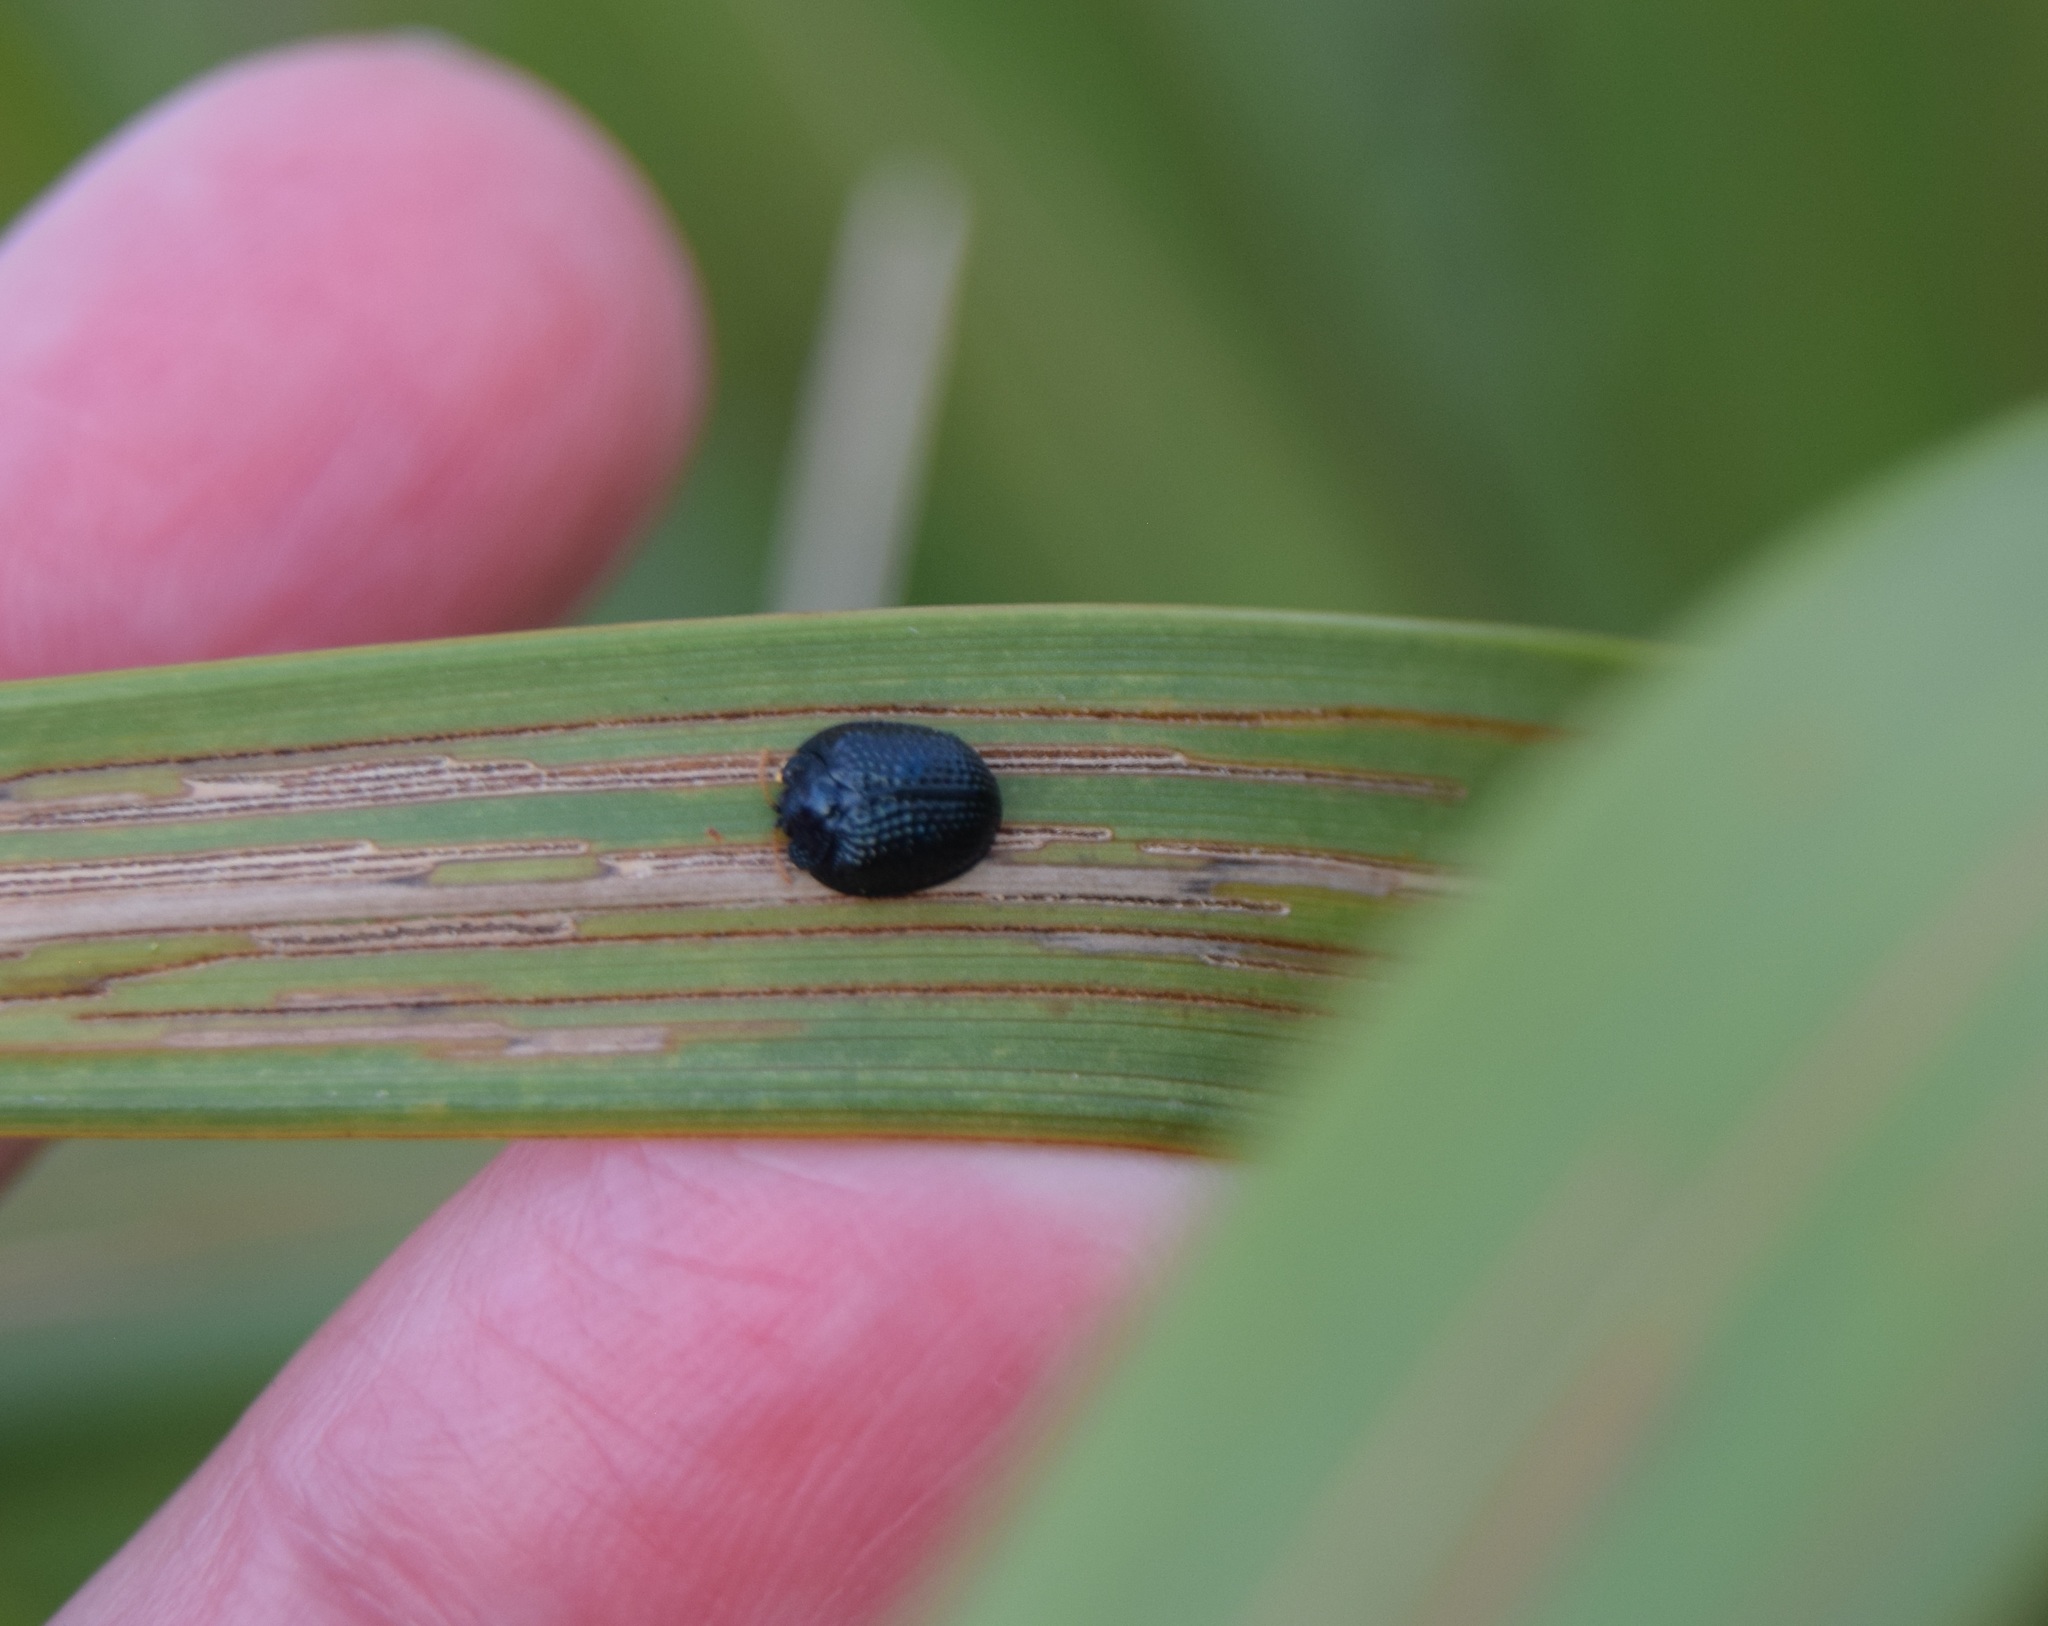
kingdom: Animalia
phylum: Arthropoda
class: Insecta
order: Coleoptera
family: Chrysomelidae
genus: Hemisphaerota
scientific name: Hemisphaerota cyanea
